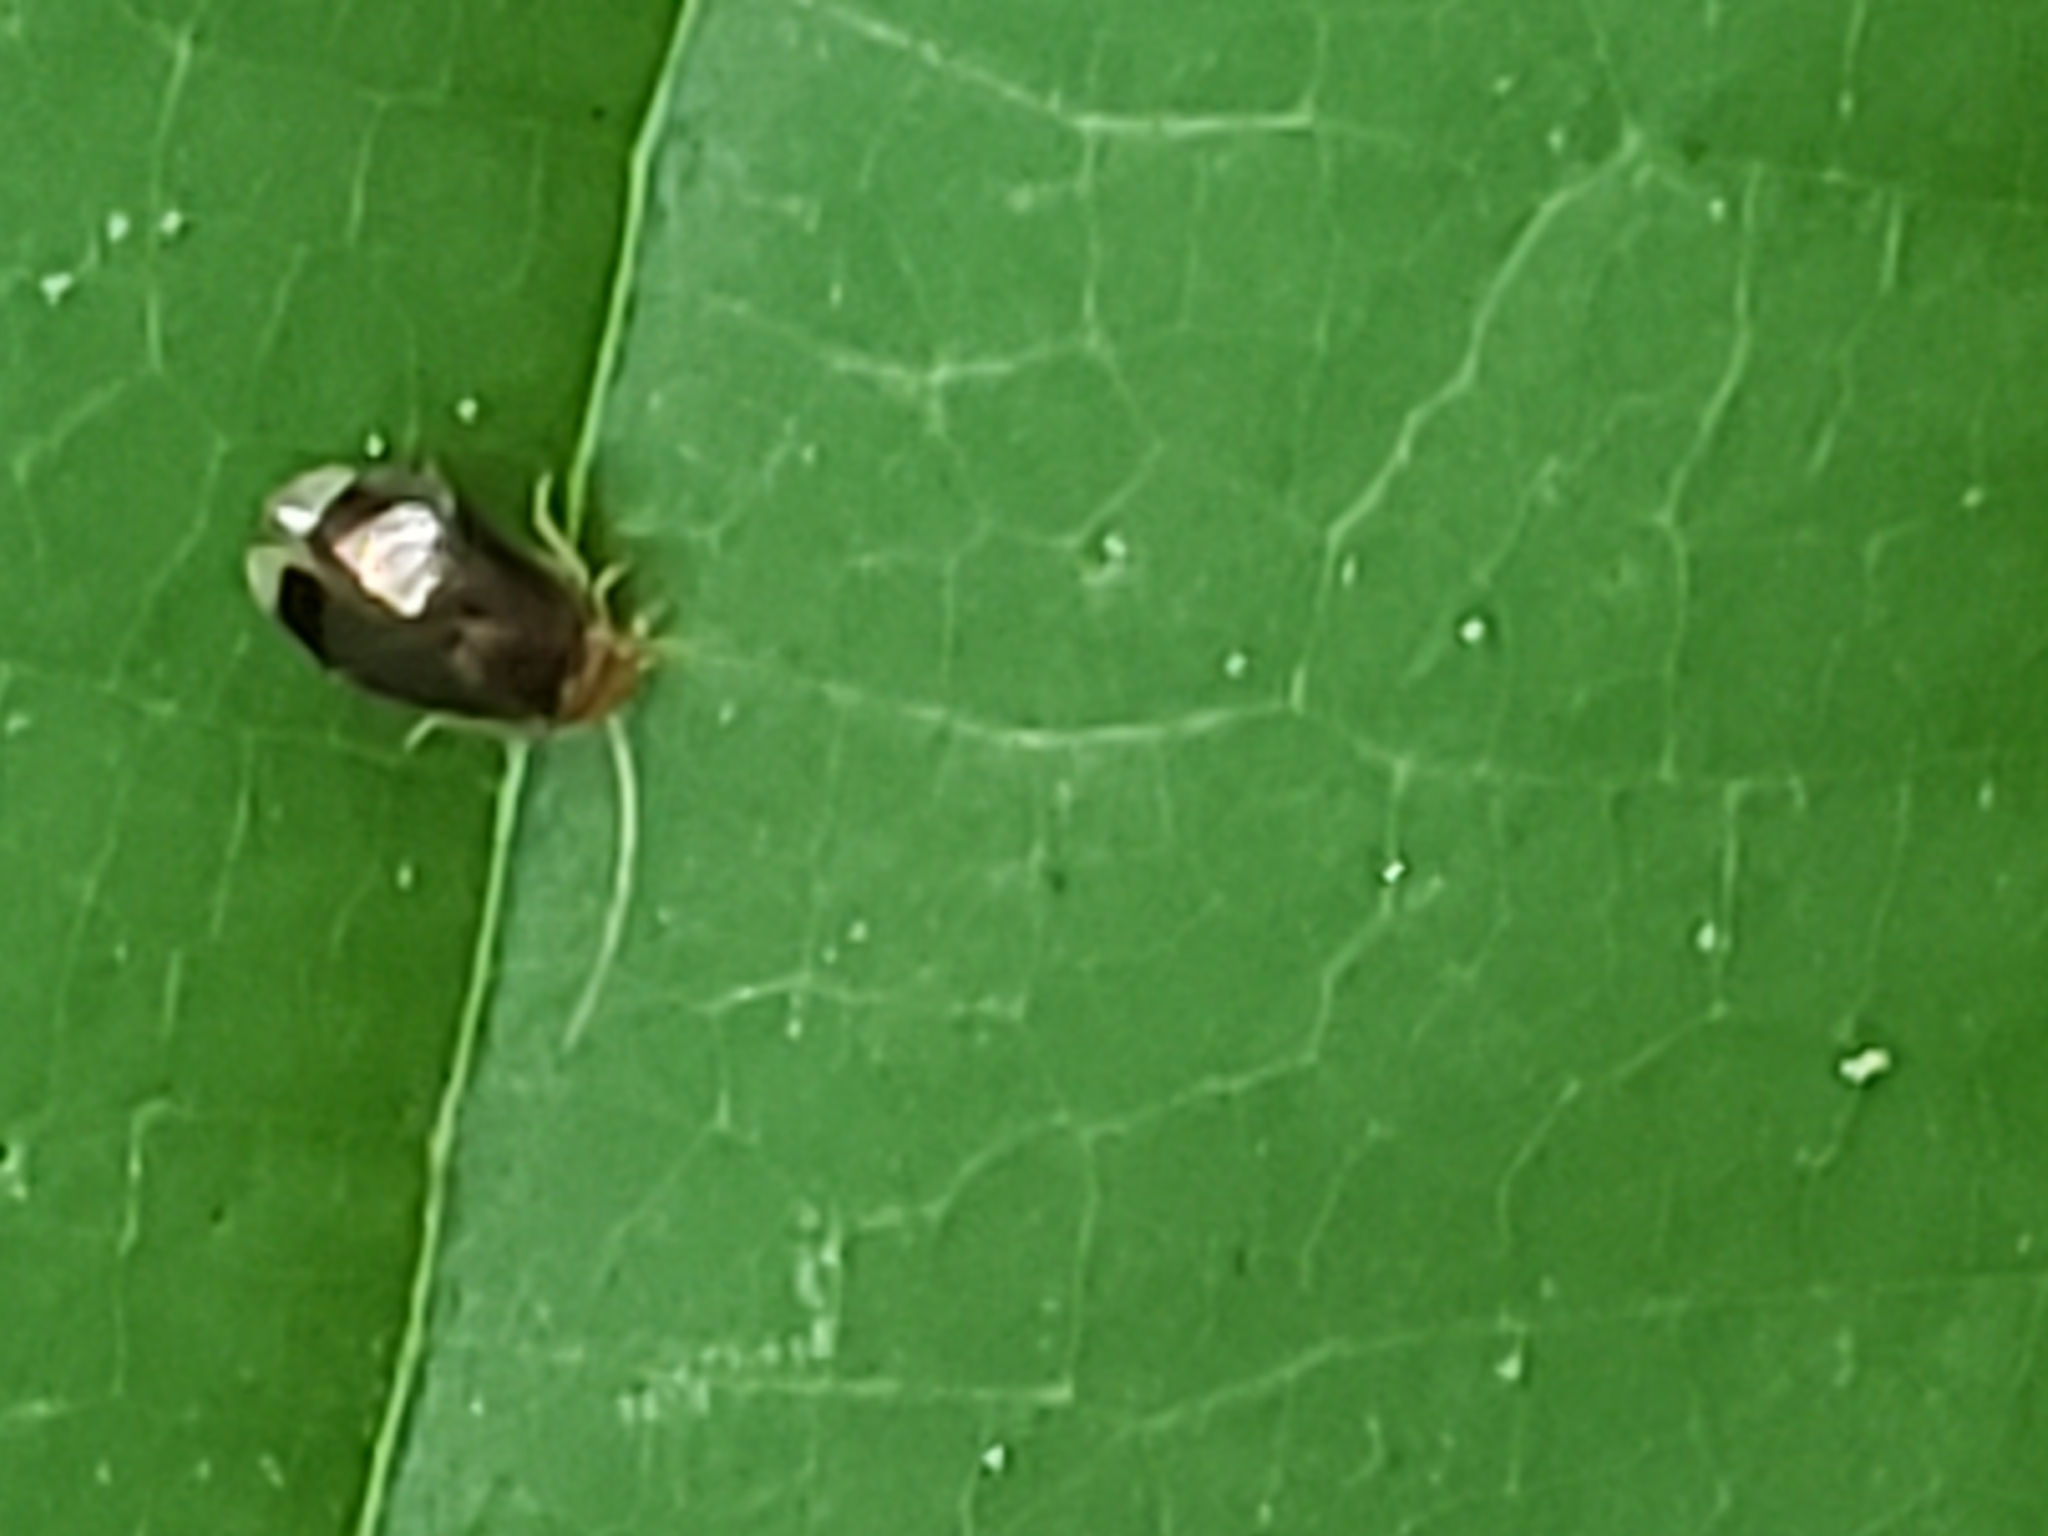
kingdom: Animalia
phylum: Arthropoda
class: Insecta
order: Psocodea
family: Amphipsocidae
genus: Polypsocus
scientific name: Polypsocus corruptus
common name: Corrupt barklouse
